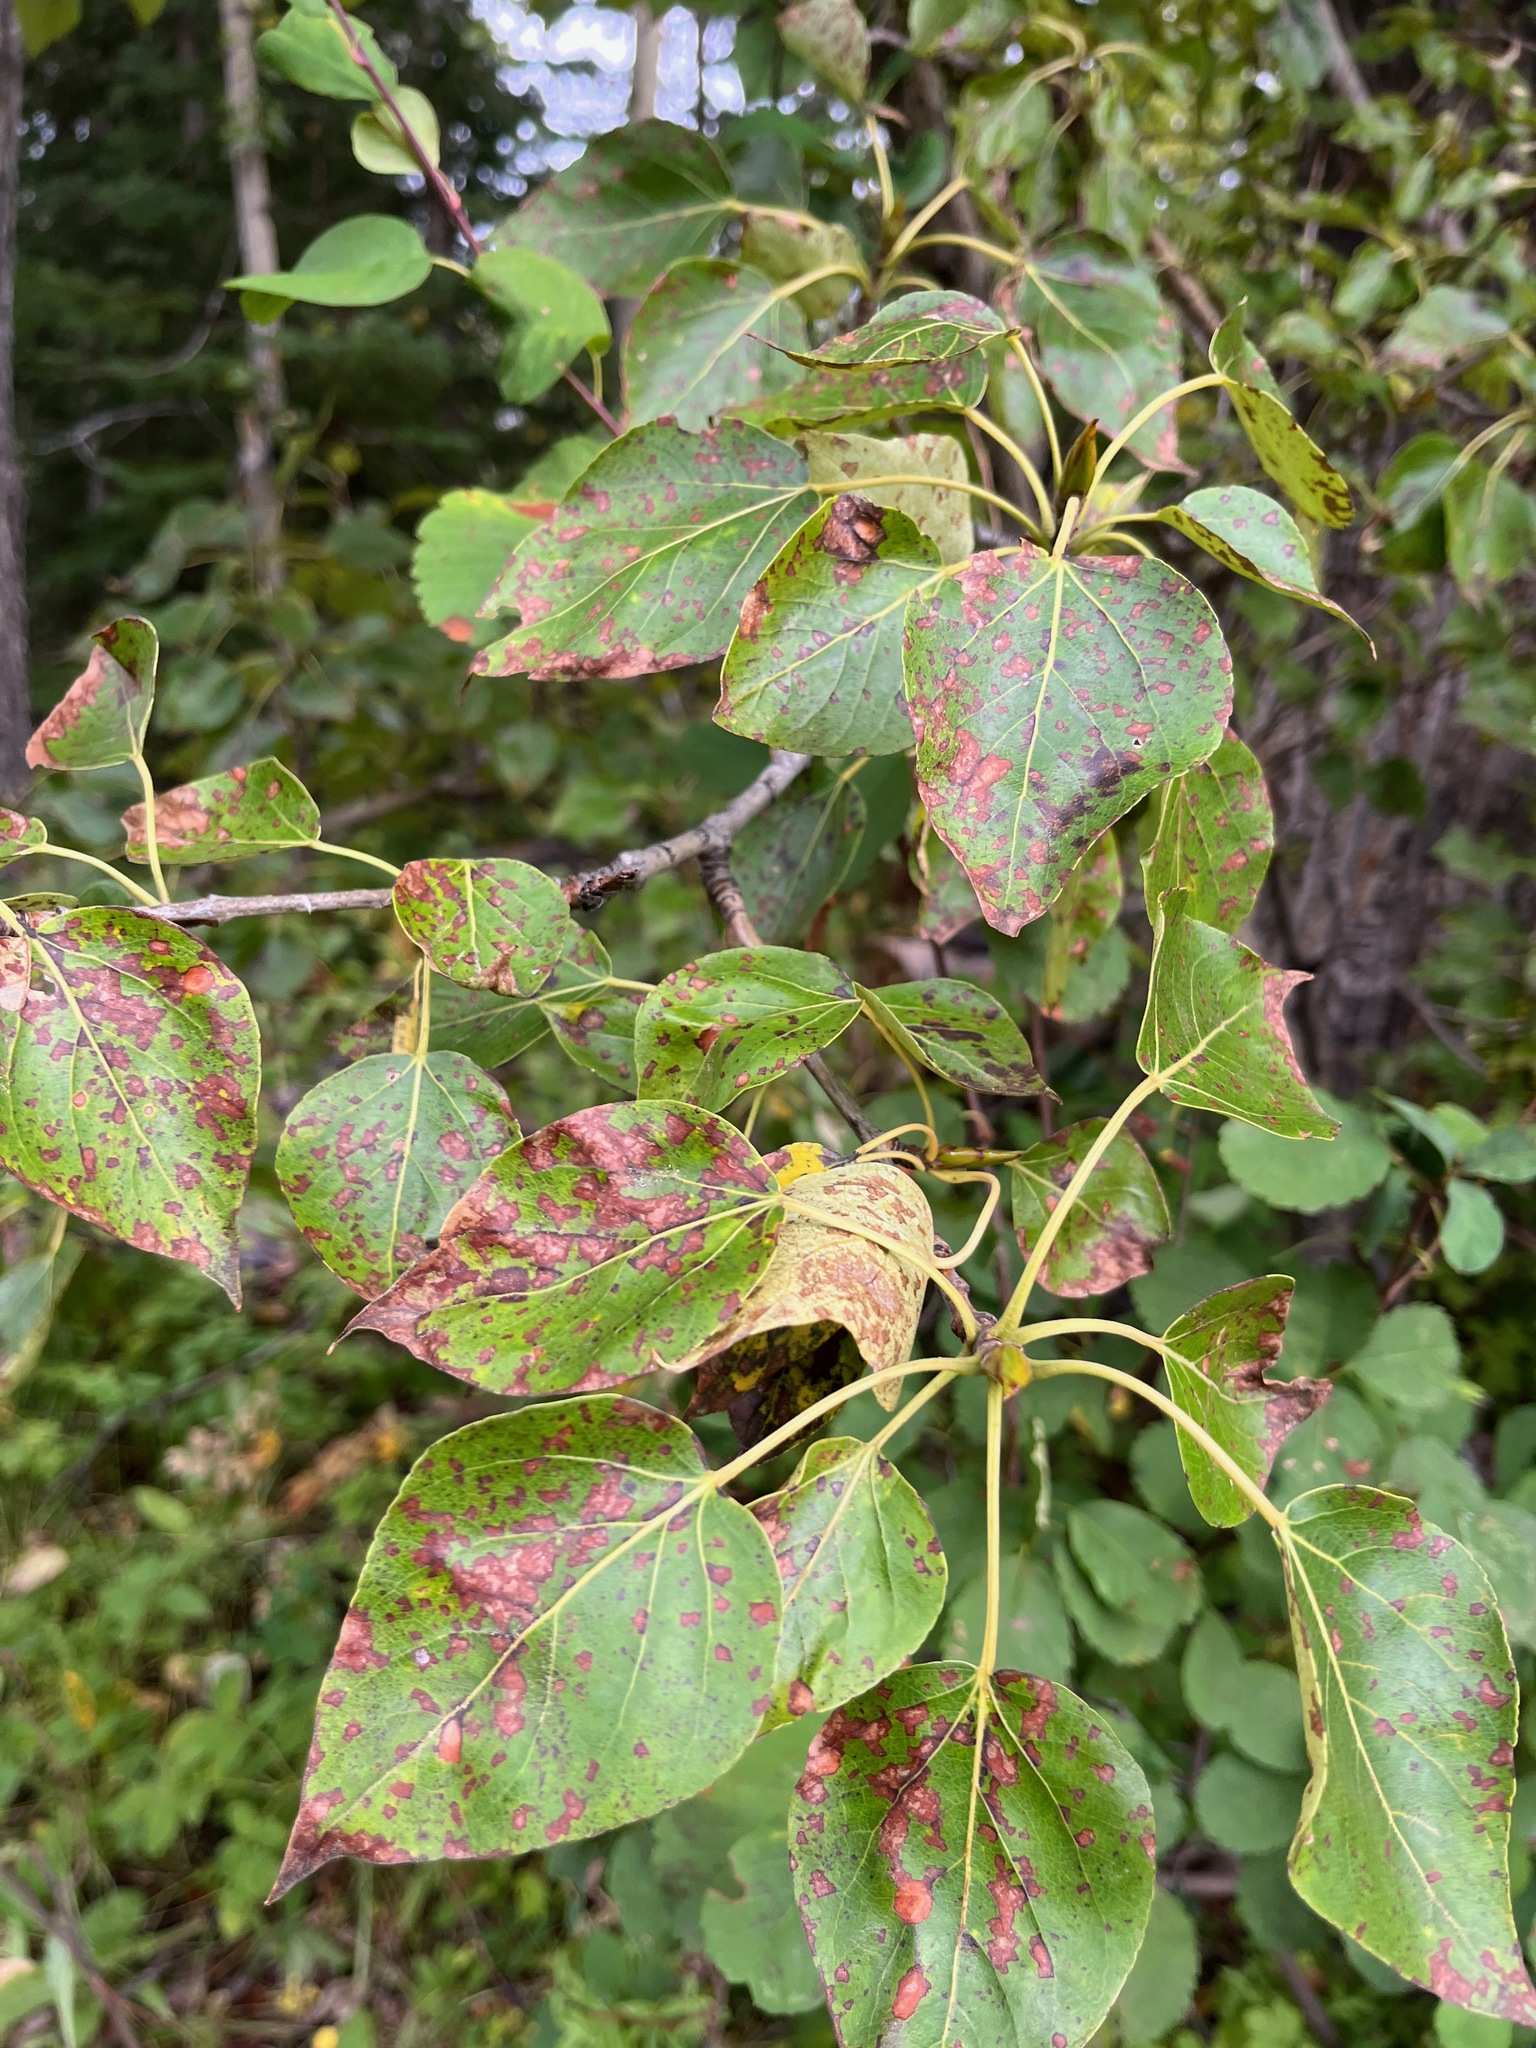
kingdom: Plantae
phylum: Tracheophyta
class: Magnoliopsida
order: Malpighiales
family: Salicaceae
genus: Populus
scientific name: Populus trichocarpa
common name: Black cottonwood
